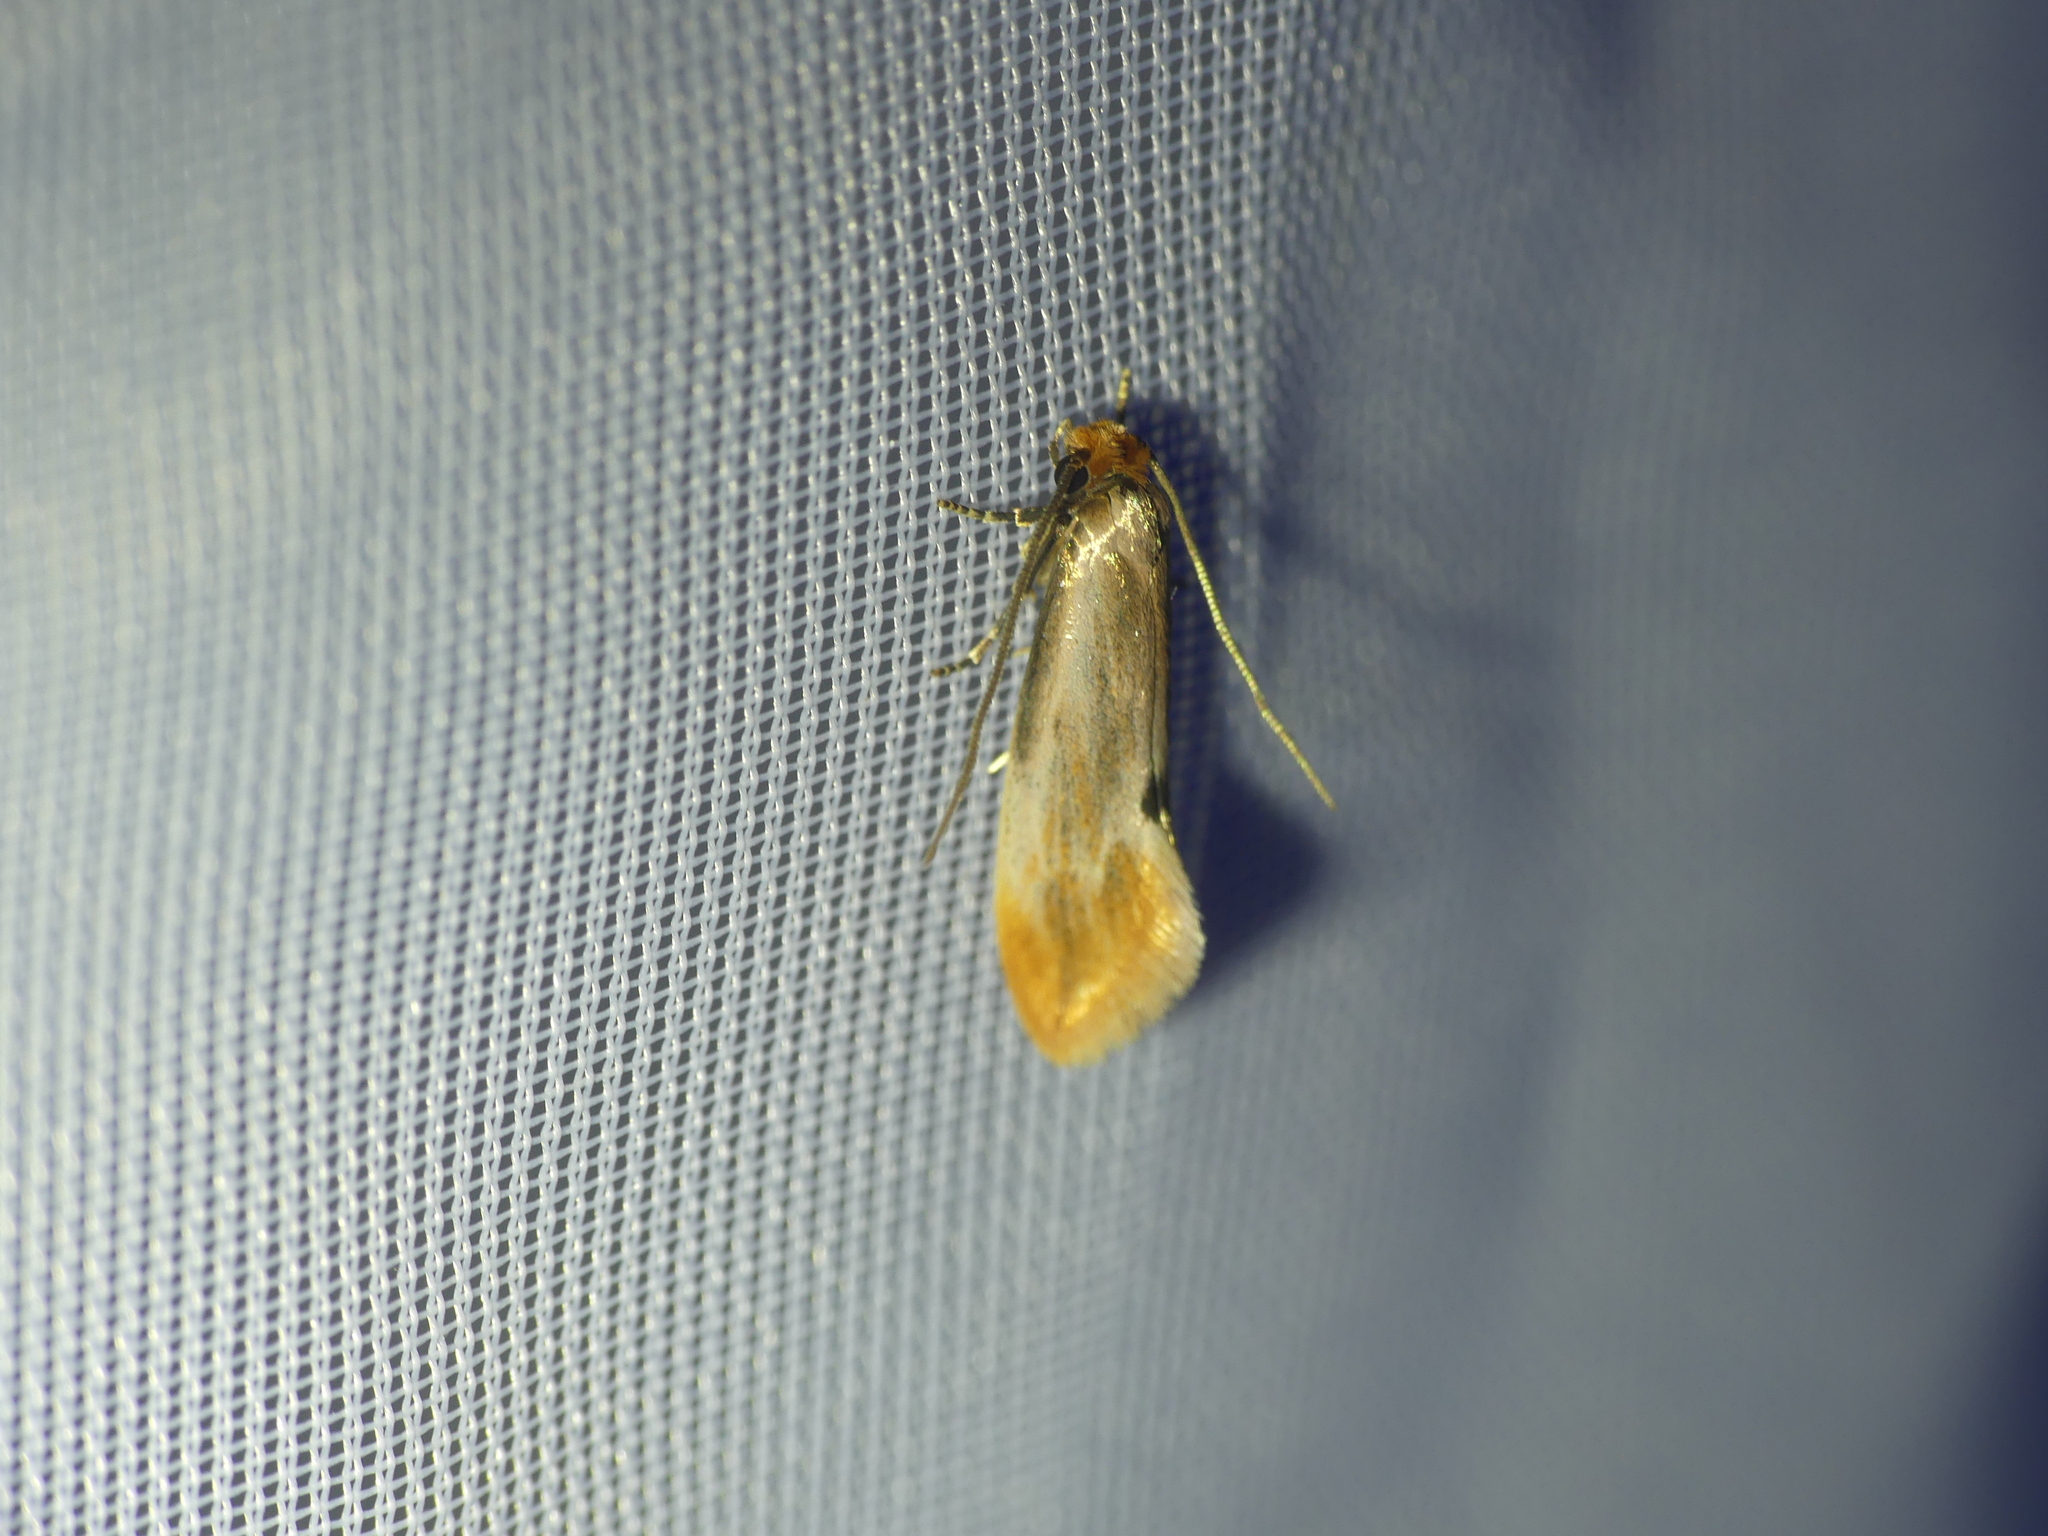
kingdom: Animalia
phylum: Arthropoda
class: Insecta
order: Lepidoptera
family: Tineidae
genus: Tinea
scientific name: Tinea semifulvella
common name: Fulvous clothes
